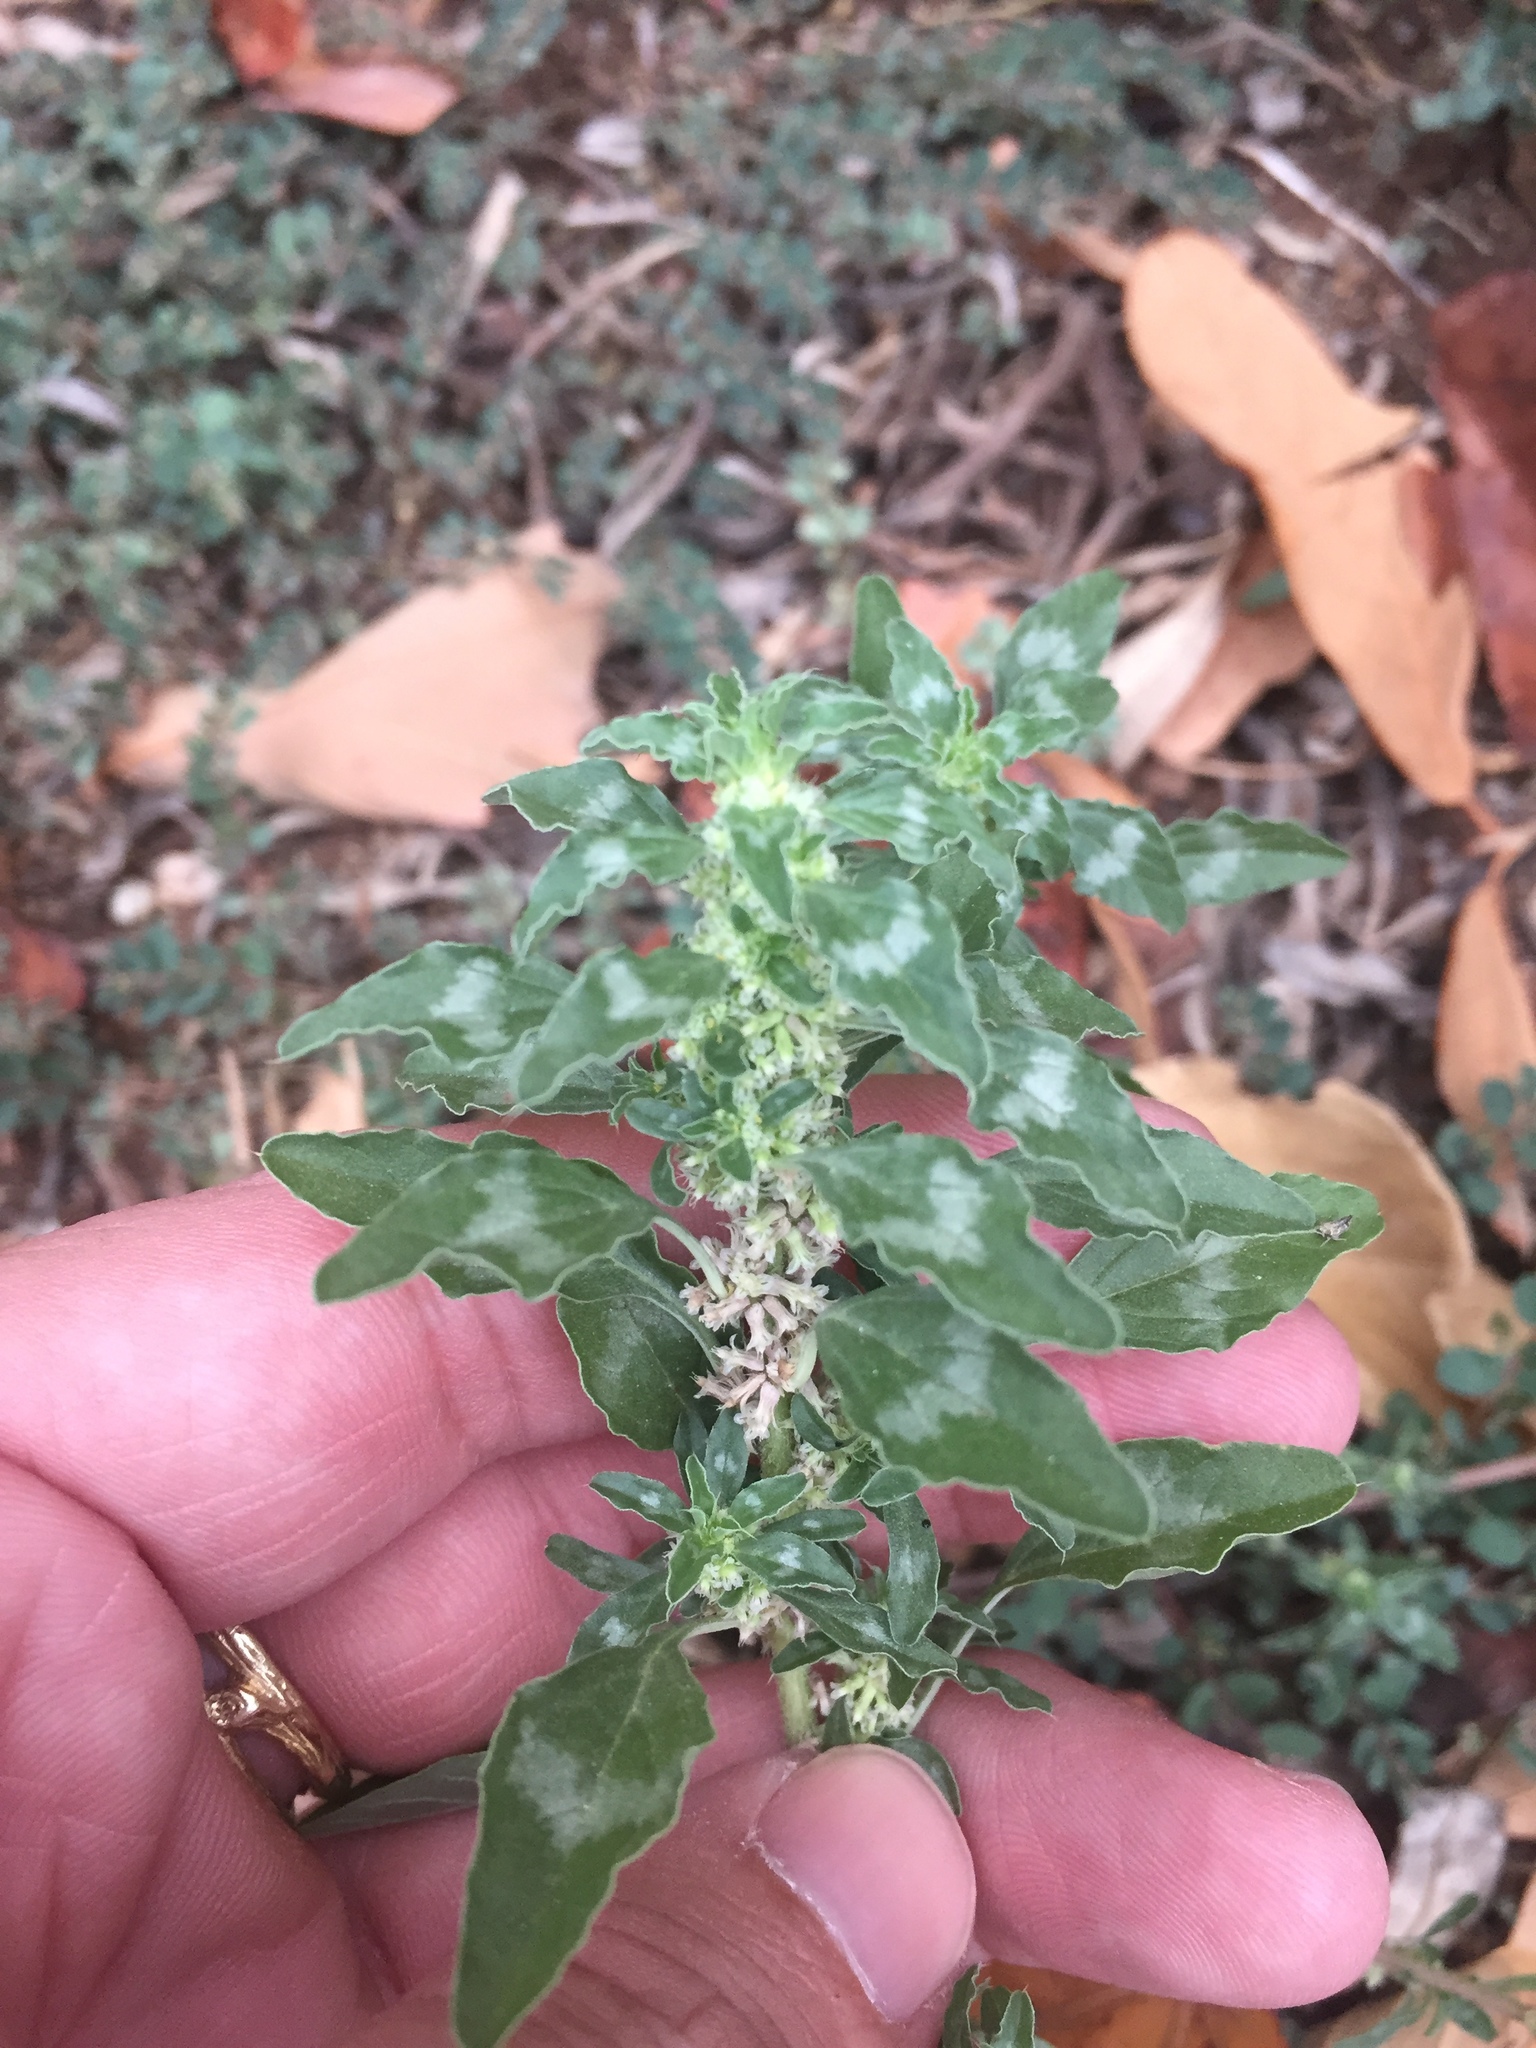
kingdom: Plantae
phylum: Tracheophyta
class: Magnoliopsida
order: Caryophyllales
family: Amaranthaceae
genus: Amaranthus
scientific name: Amaranthus polygonoides
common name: Tropical amaranth
